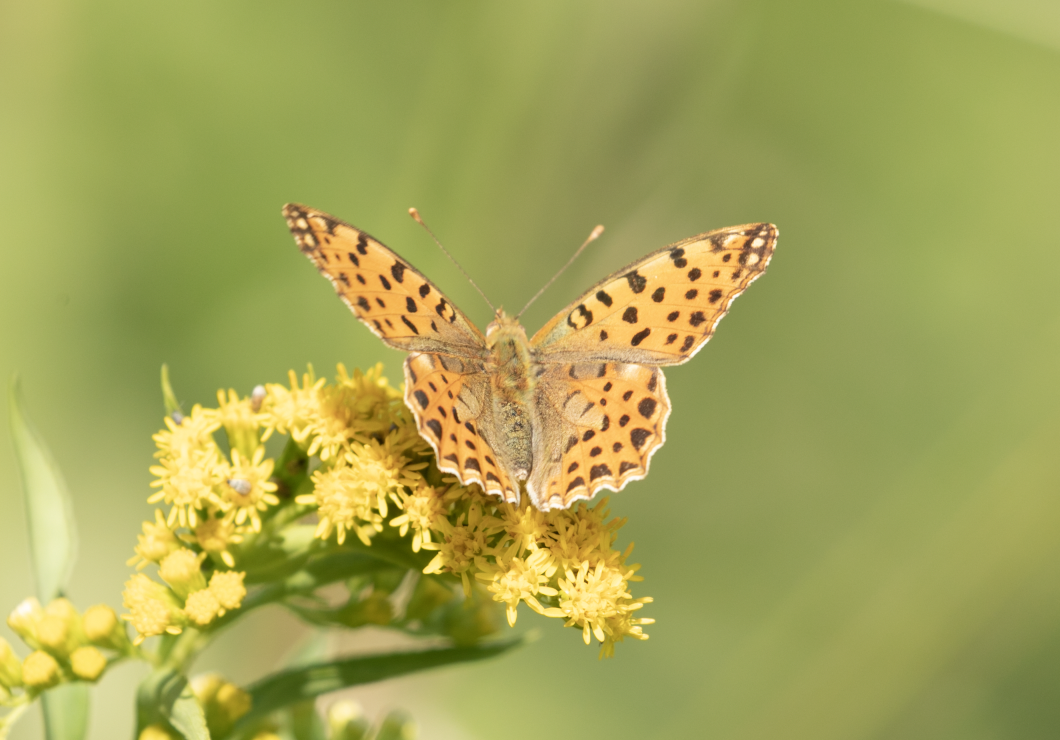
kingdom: Animalia
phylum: Arthropoda
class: Insecta
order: Lepidoptera
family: Nymphalidae
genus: Issoria
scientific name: Issoria lathonia
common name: Queen of spain fritillary
